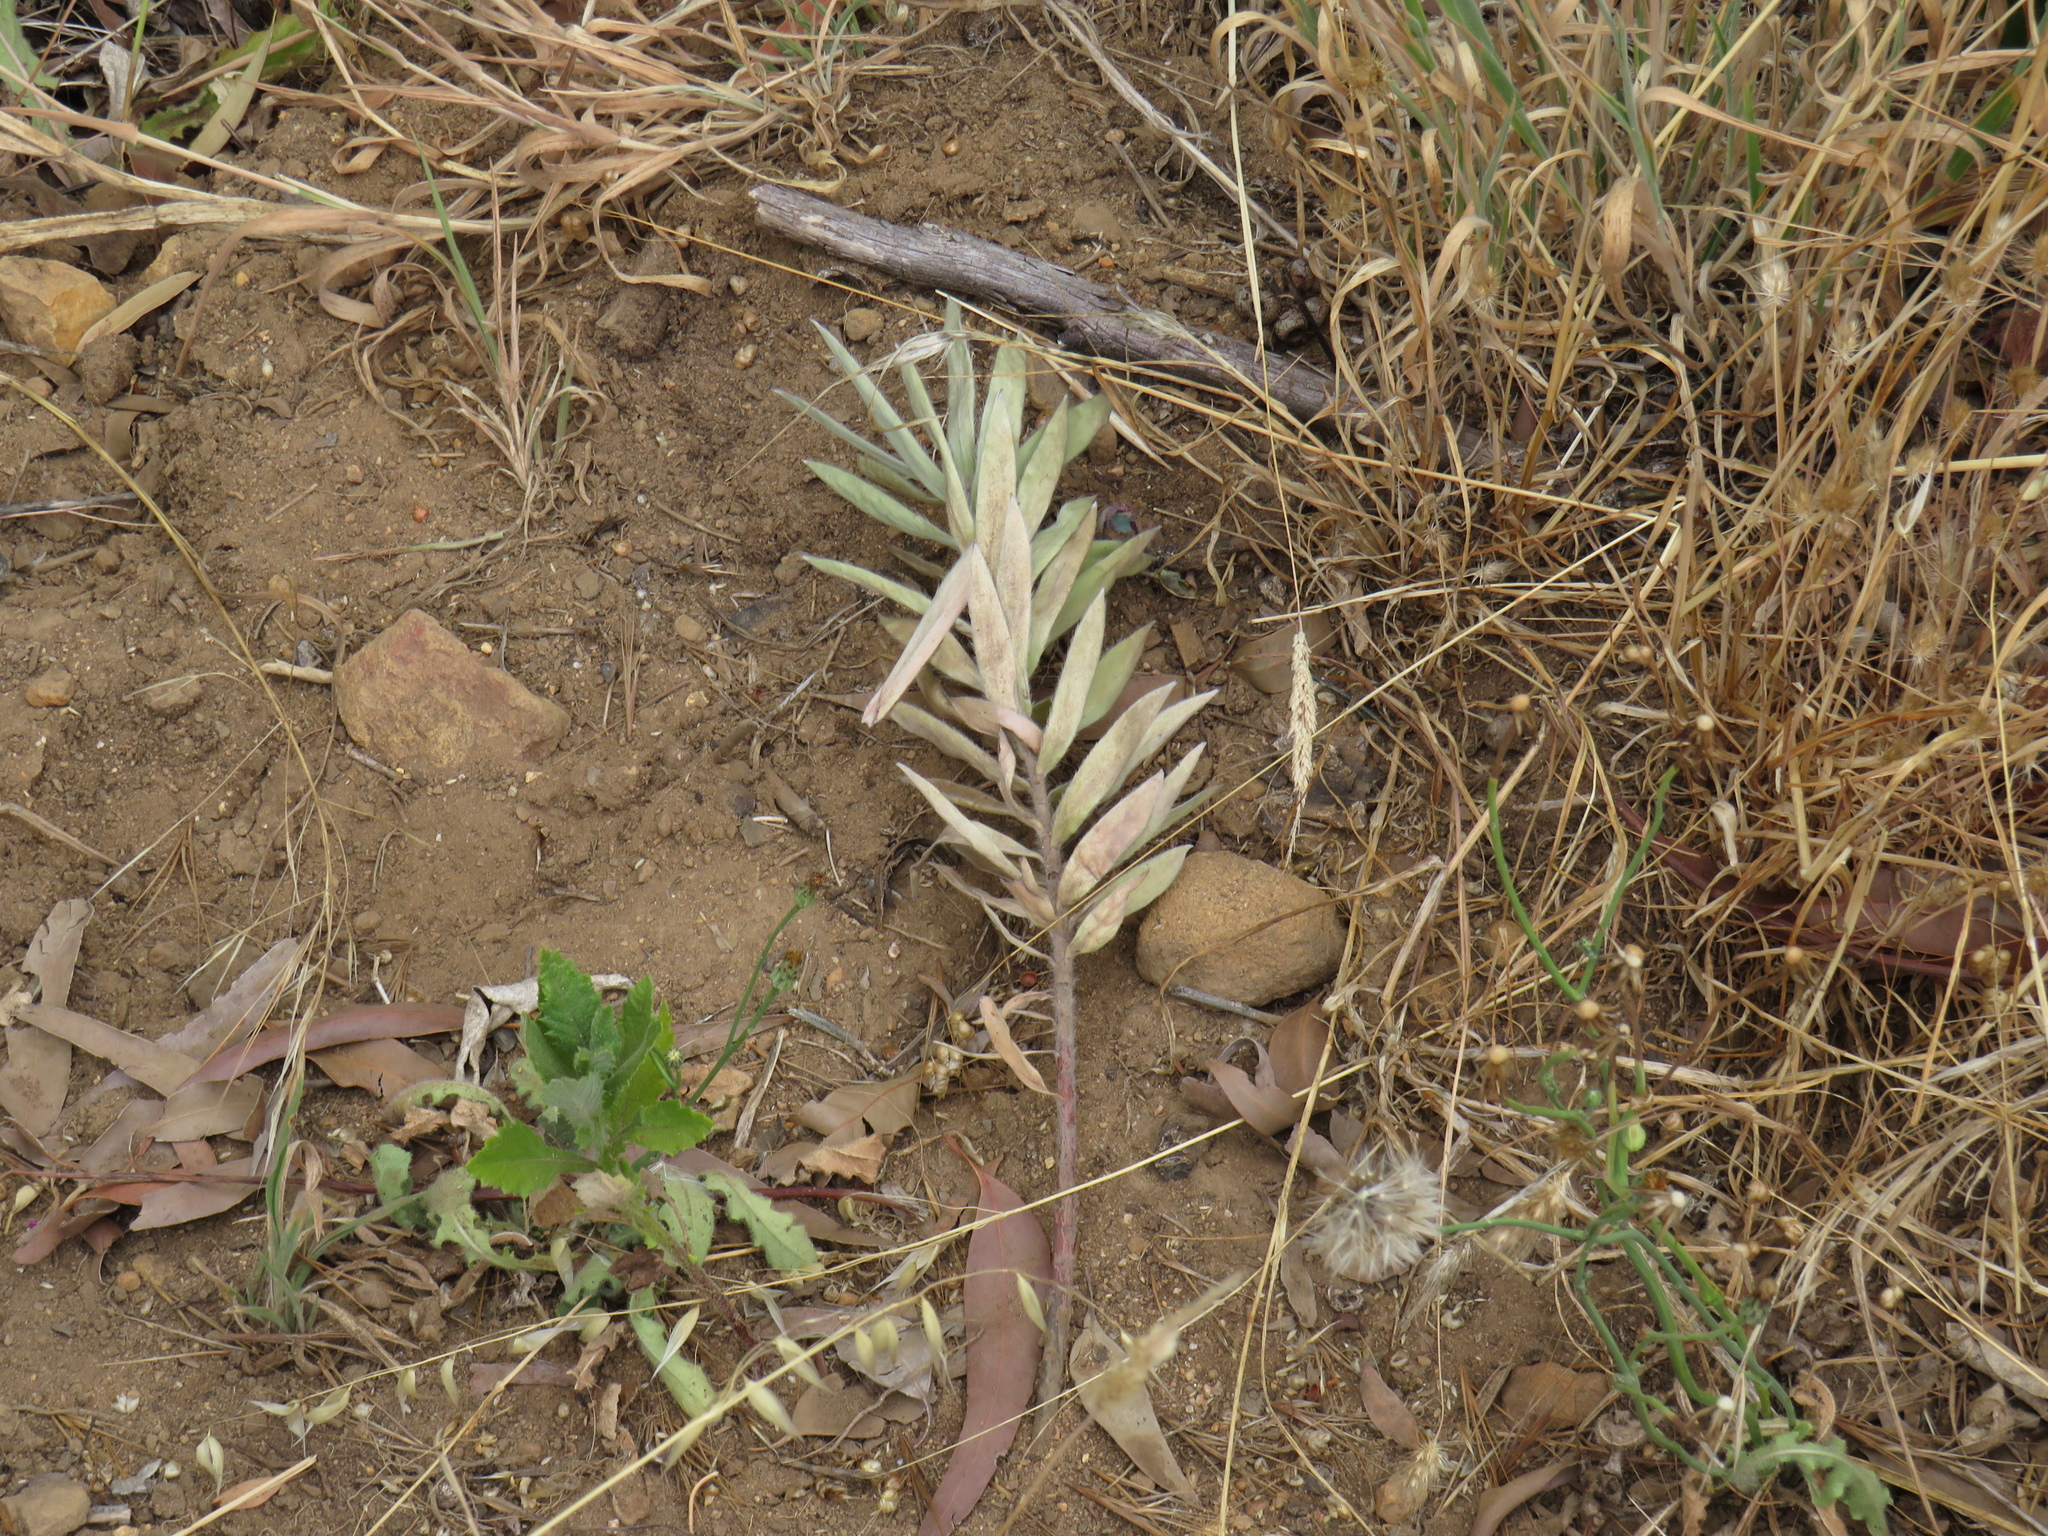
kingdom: Plantae
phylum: Tracheophyta
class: Magnoliopsida
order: Proteales
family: Proteaceae
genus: Leucadendron
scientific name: Leucadendron argenteum
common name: Cape silver tree
